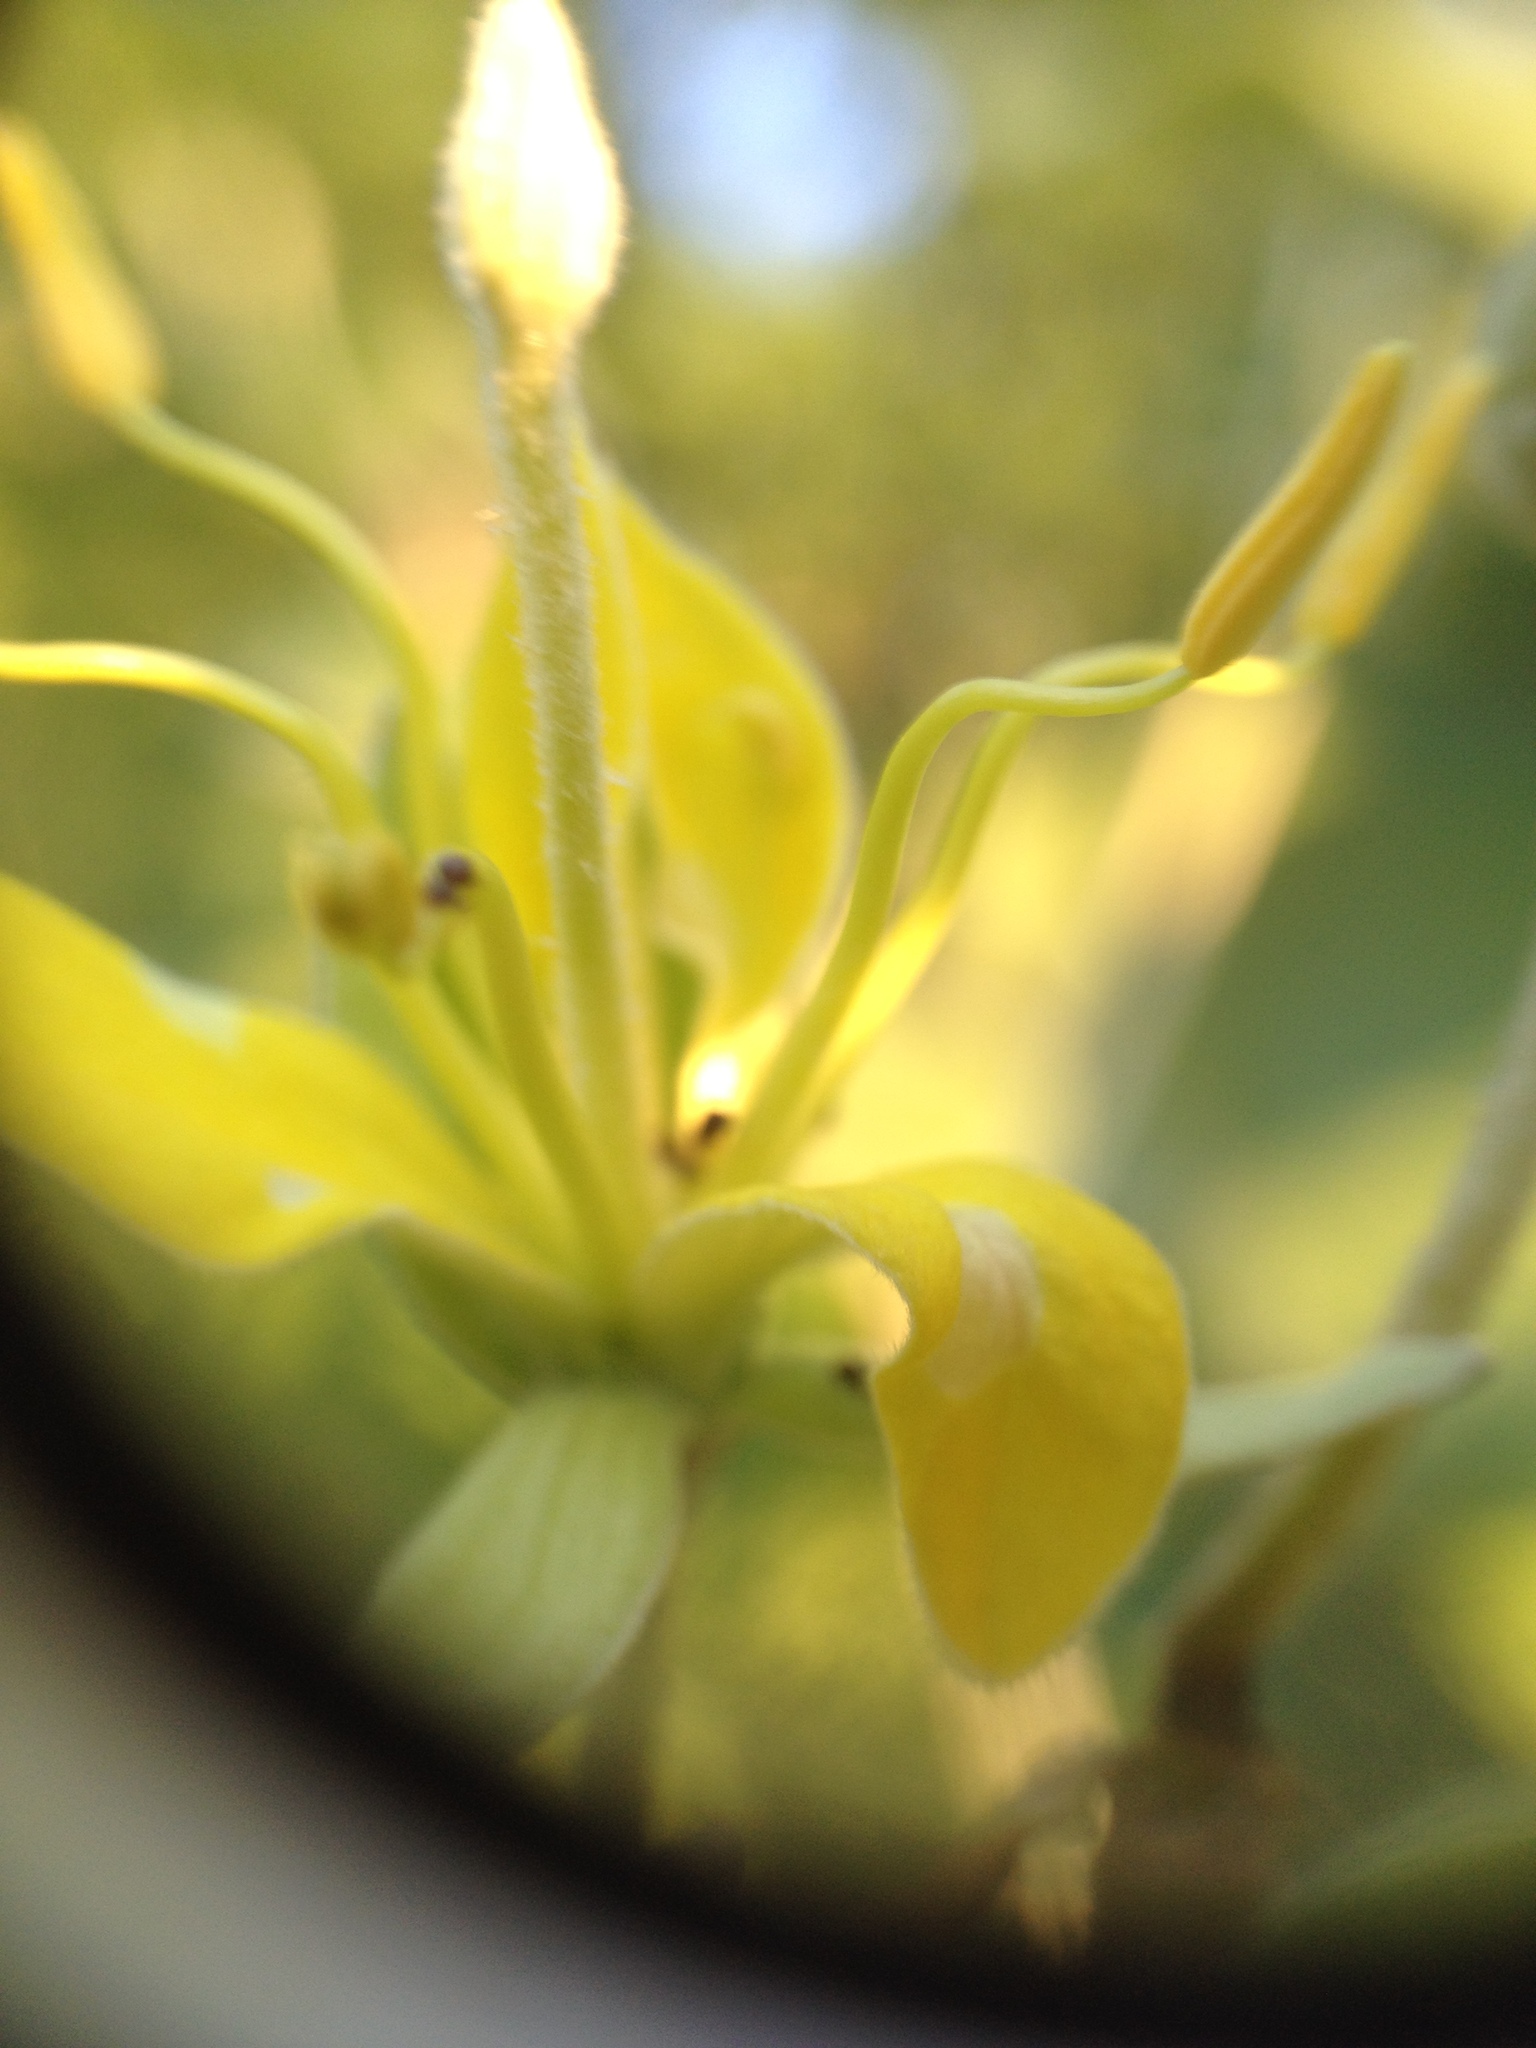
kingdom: Plantae
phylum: Tracheophyta
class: Magnoliopsida
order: Brassicales
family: Capparaceae
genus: Capparicordis
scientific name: Capparicordis tweedieana
